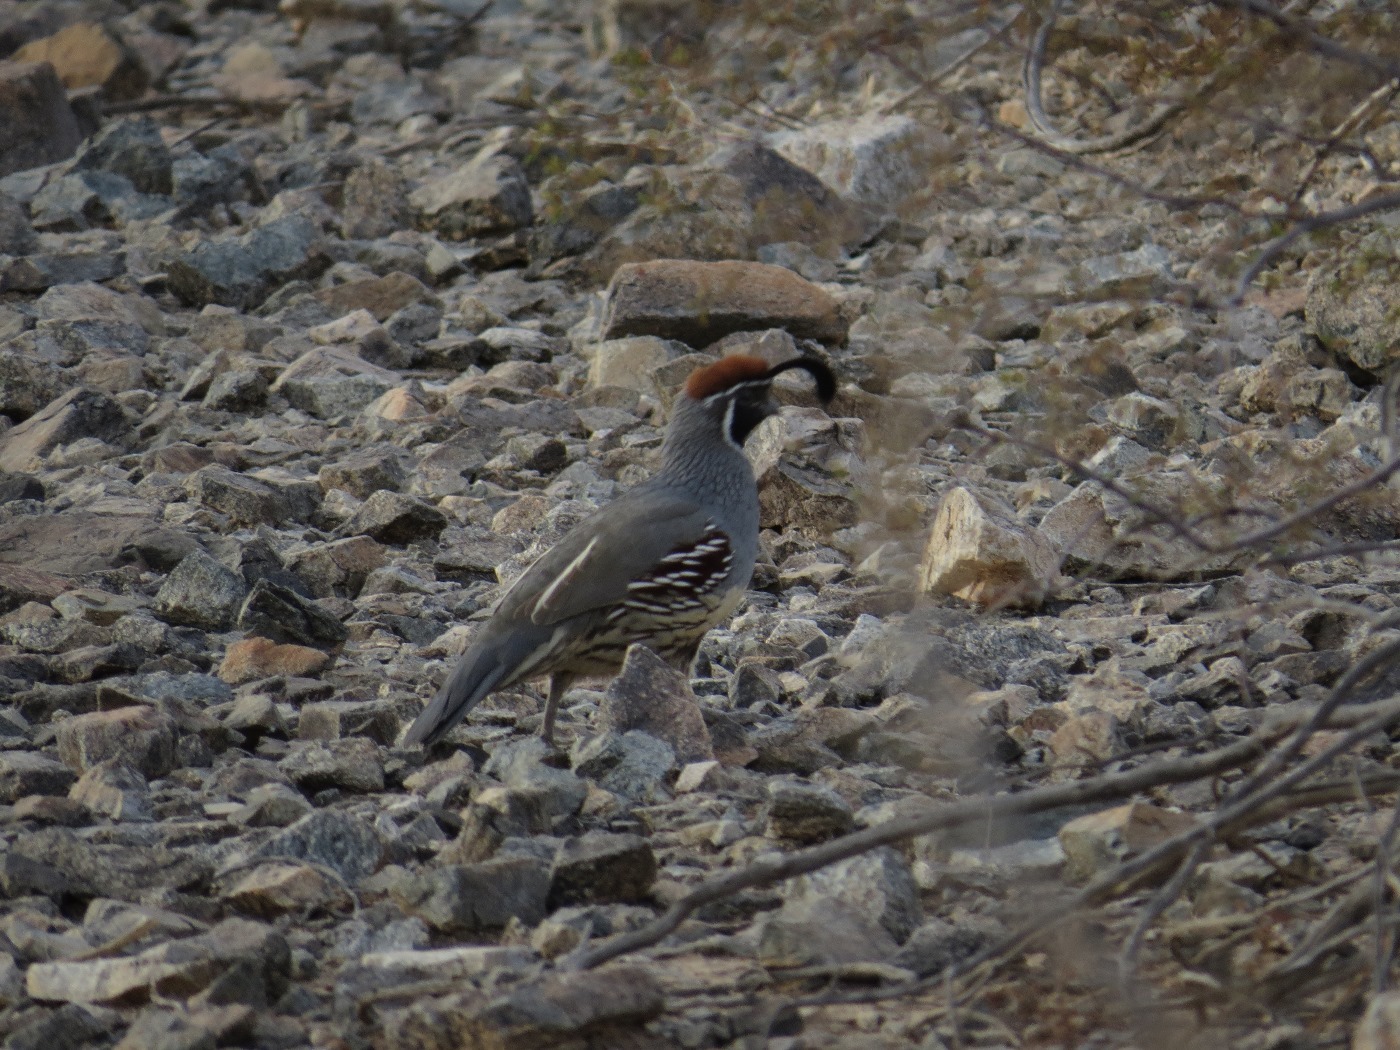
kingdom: Animalia
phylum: Chordata
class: Aves
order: Galliformes
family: Odontophoridae
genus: Callipepla
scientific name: Callipepla gambelii
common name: Gambel's quail
